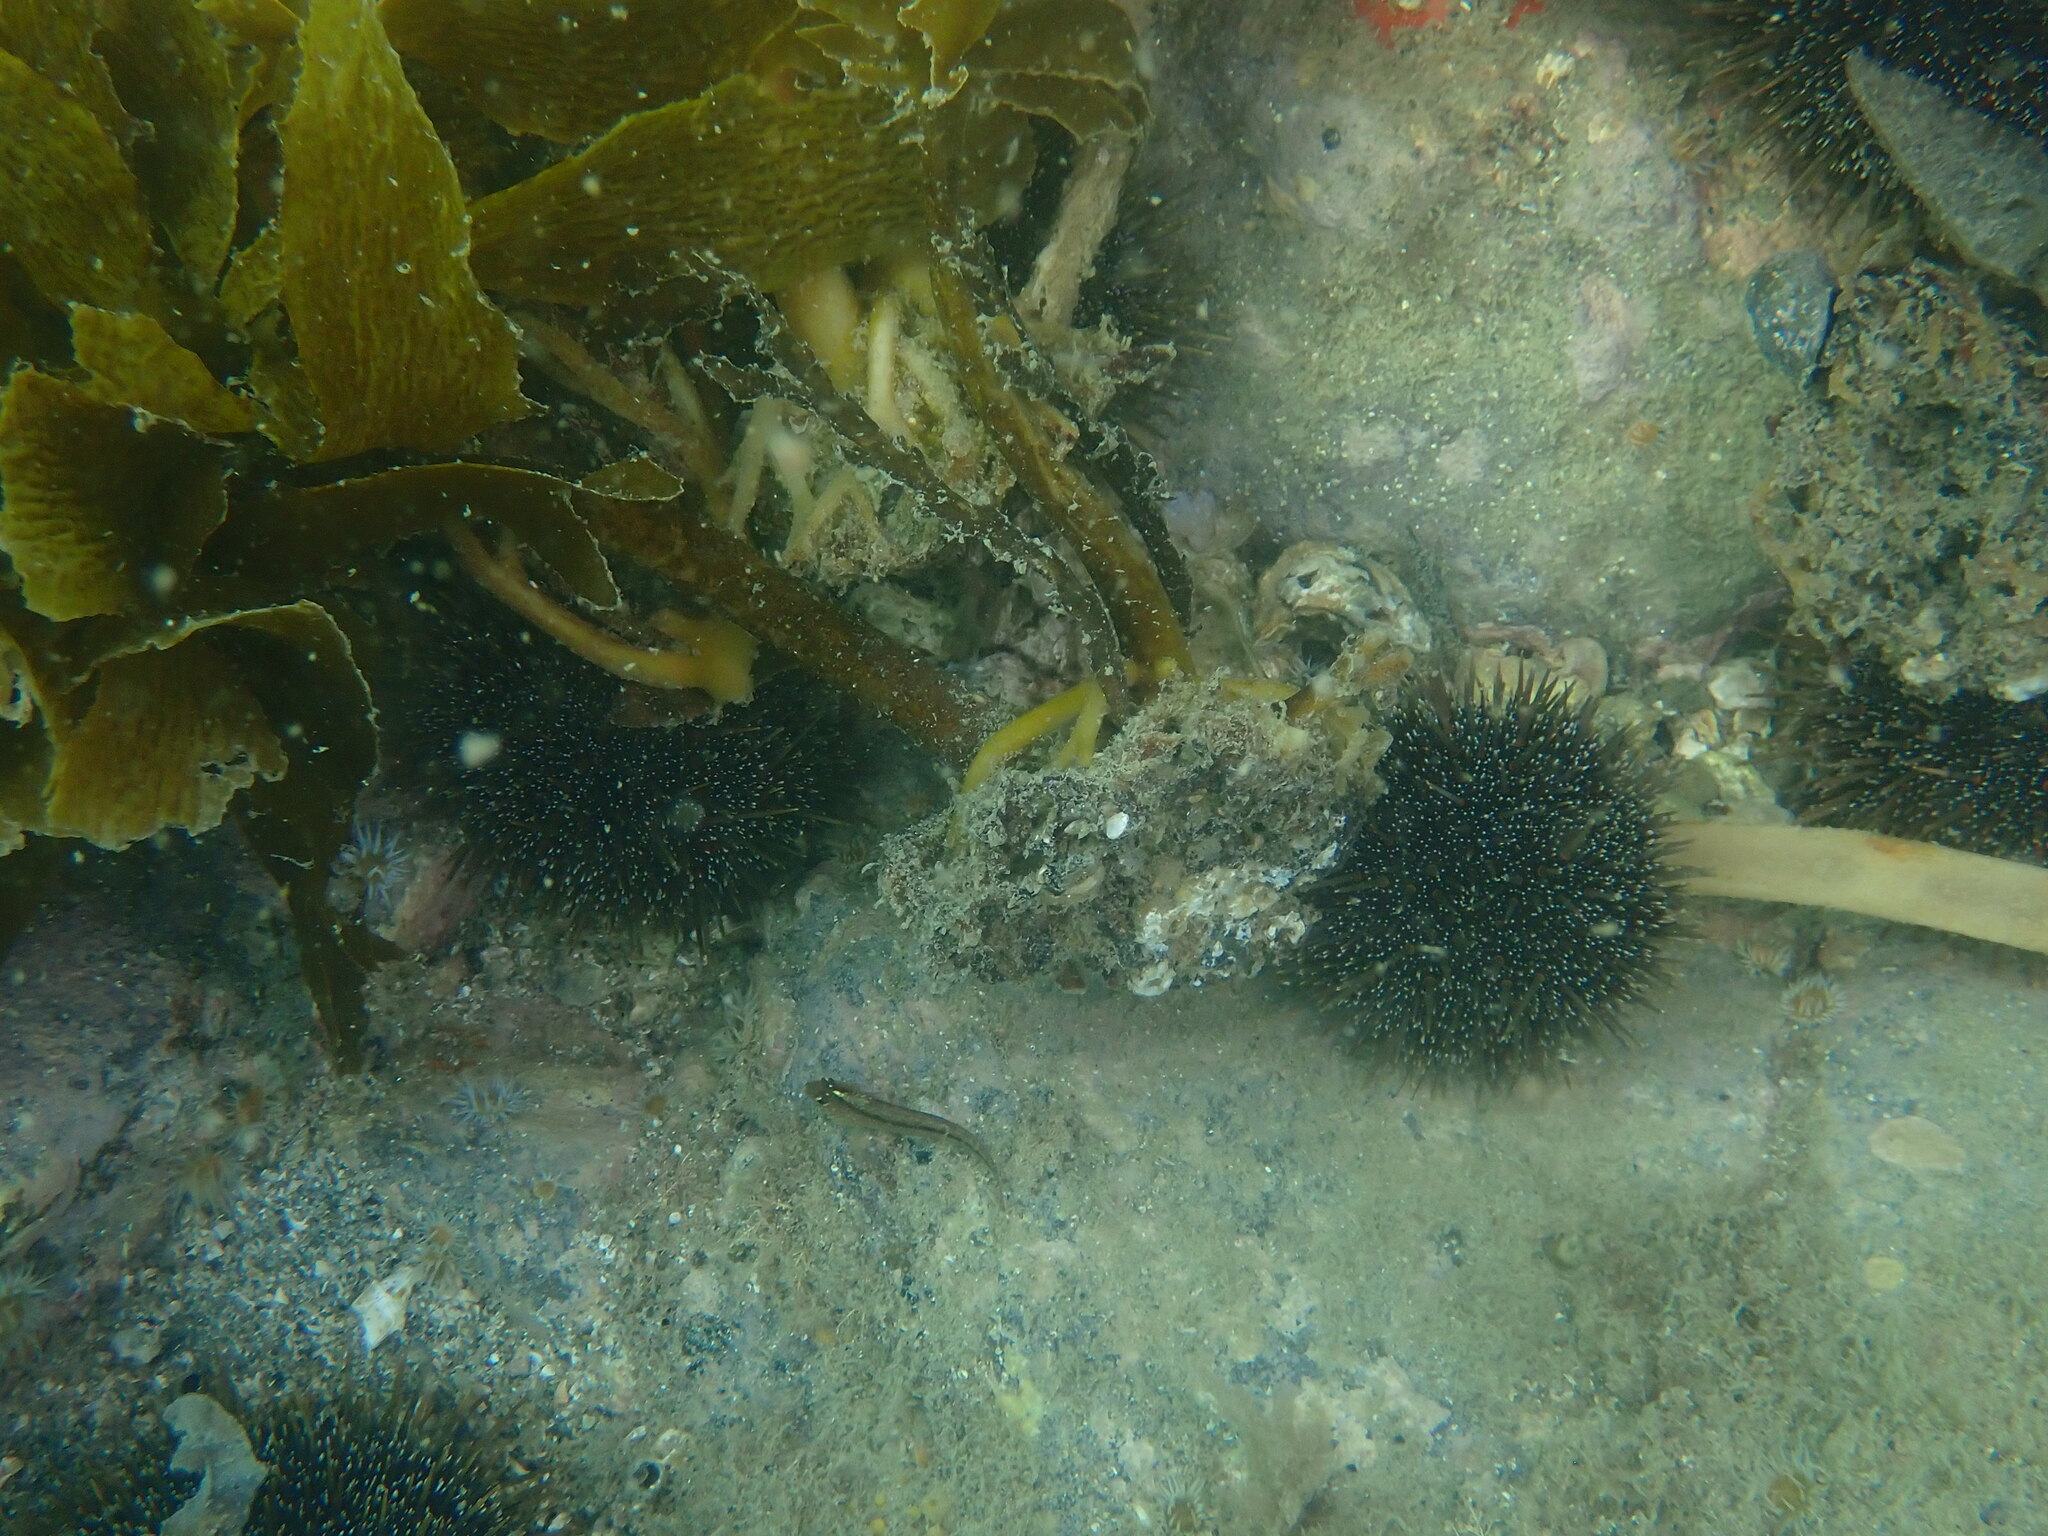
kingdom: Animalia
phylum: Chordata
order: Perciformes
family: Tripterygiidae
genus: Forsterygion
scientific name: Forsterygion lapillum
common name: Common triplefin
